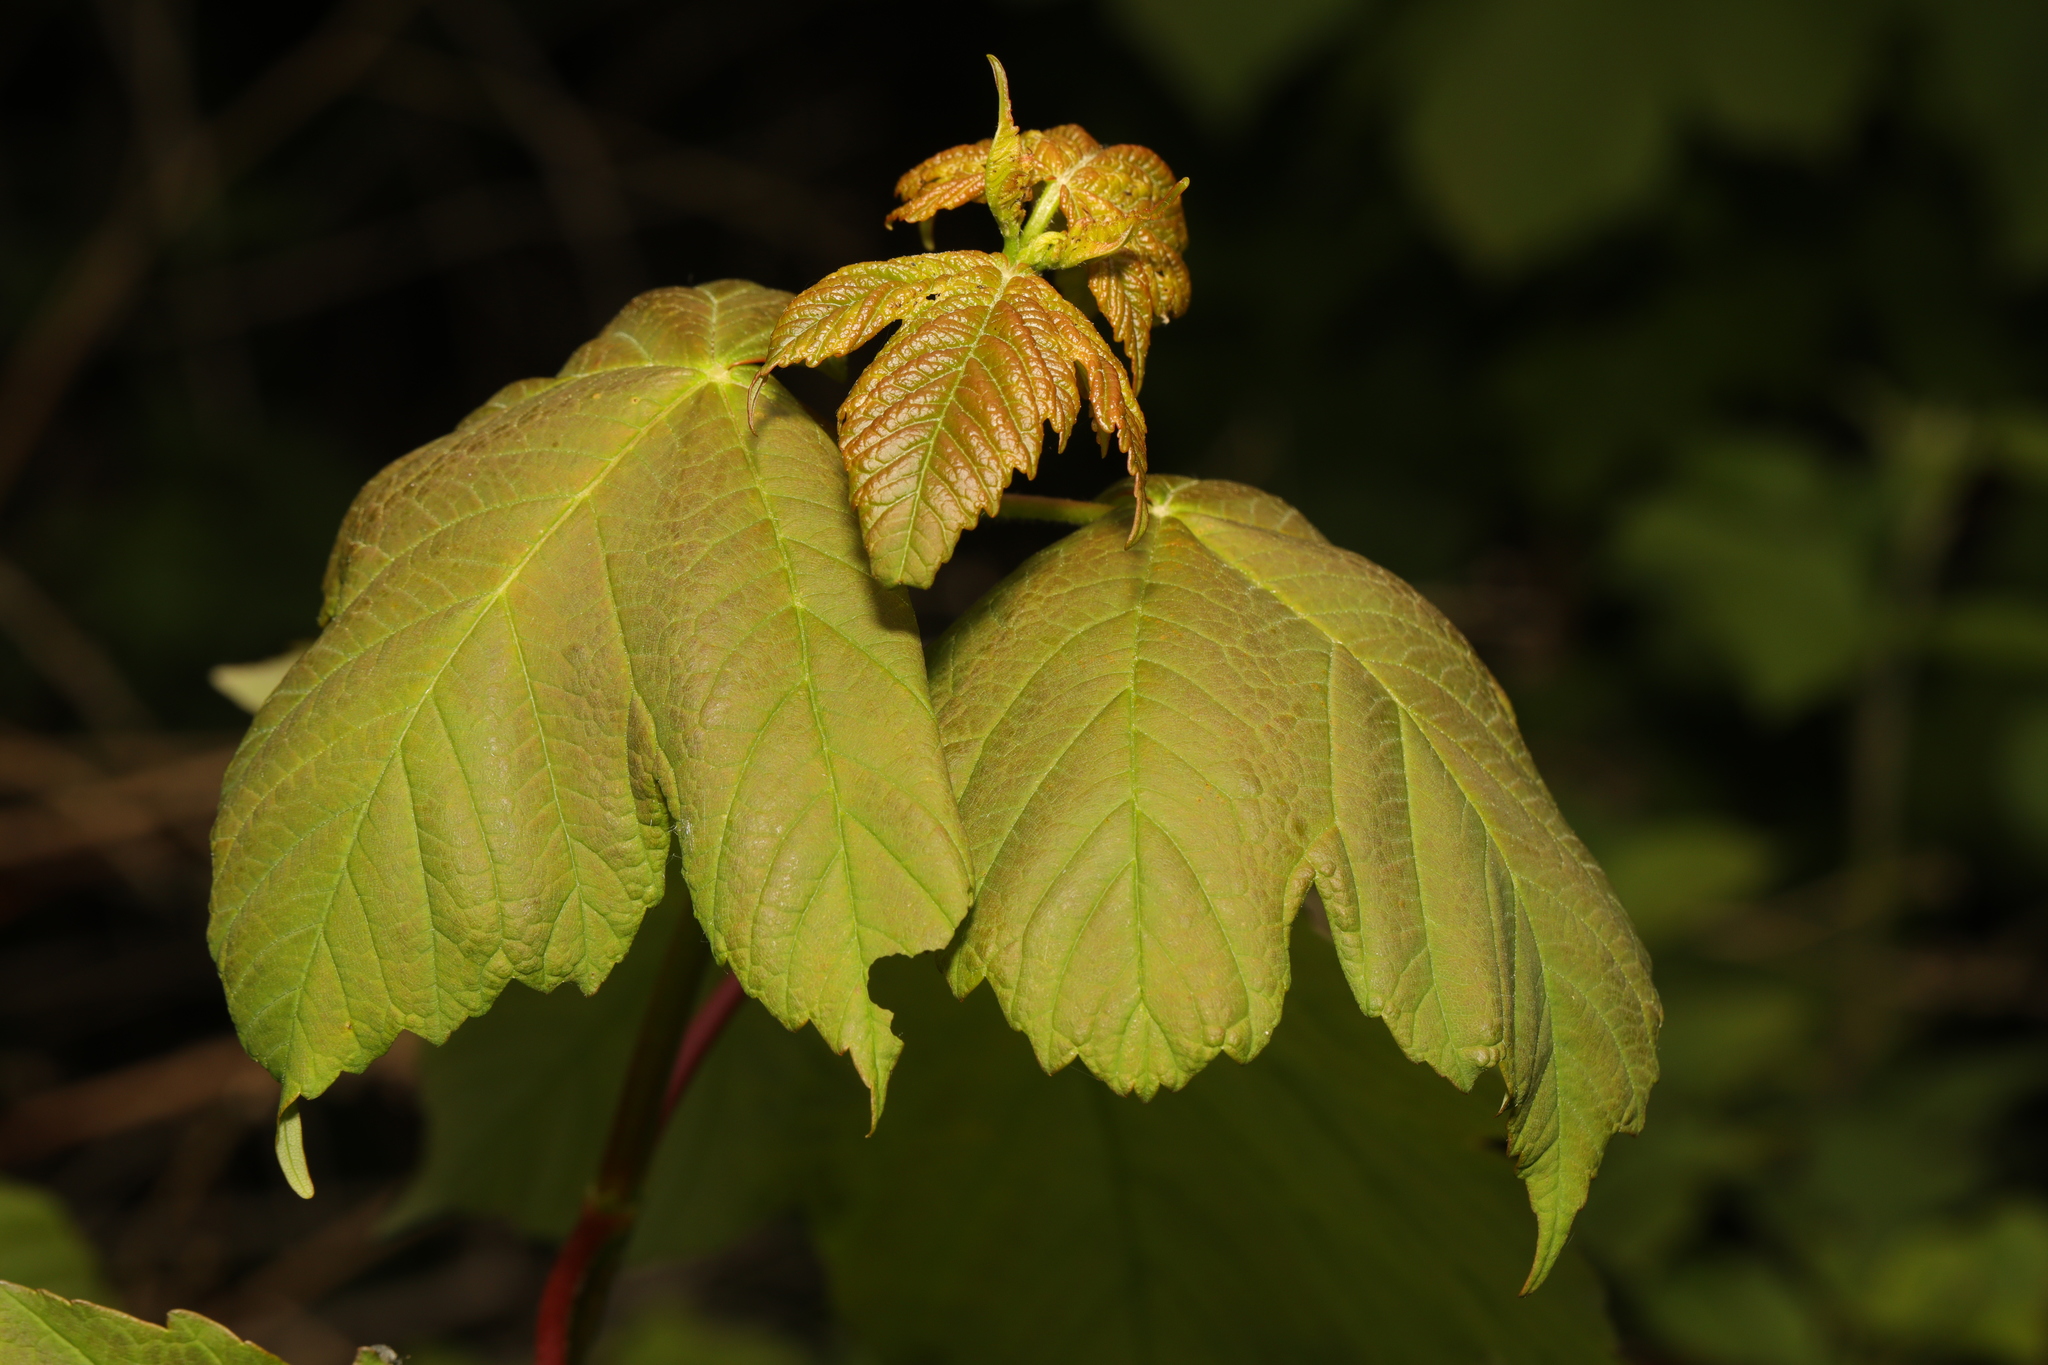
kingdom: Plantae
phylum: Tracheophyta
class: Magnoliopsida
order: Sapindales
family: Sapindaceae
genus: Acer
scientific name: Acer pseudoplatanus
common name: Sycamore
